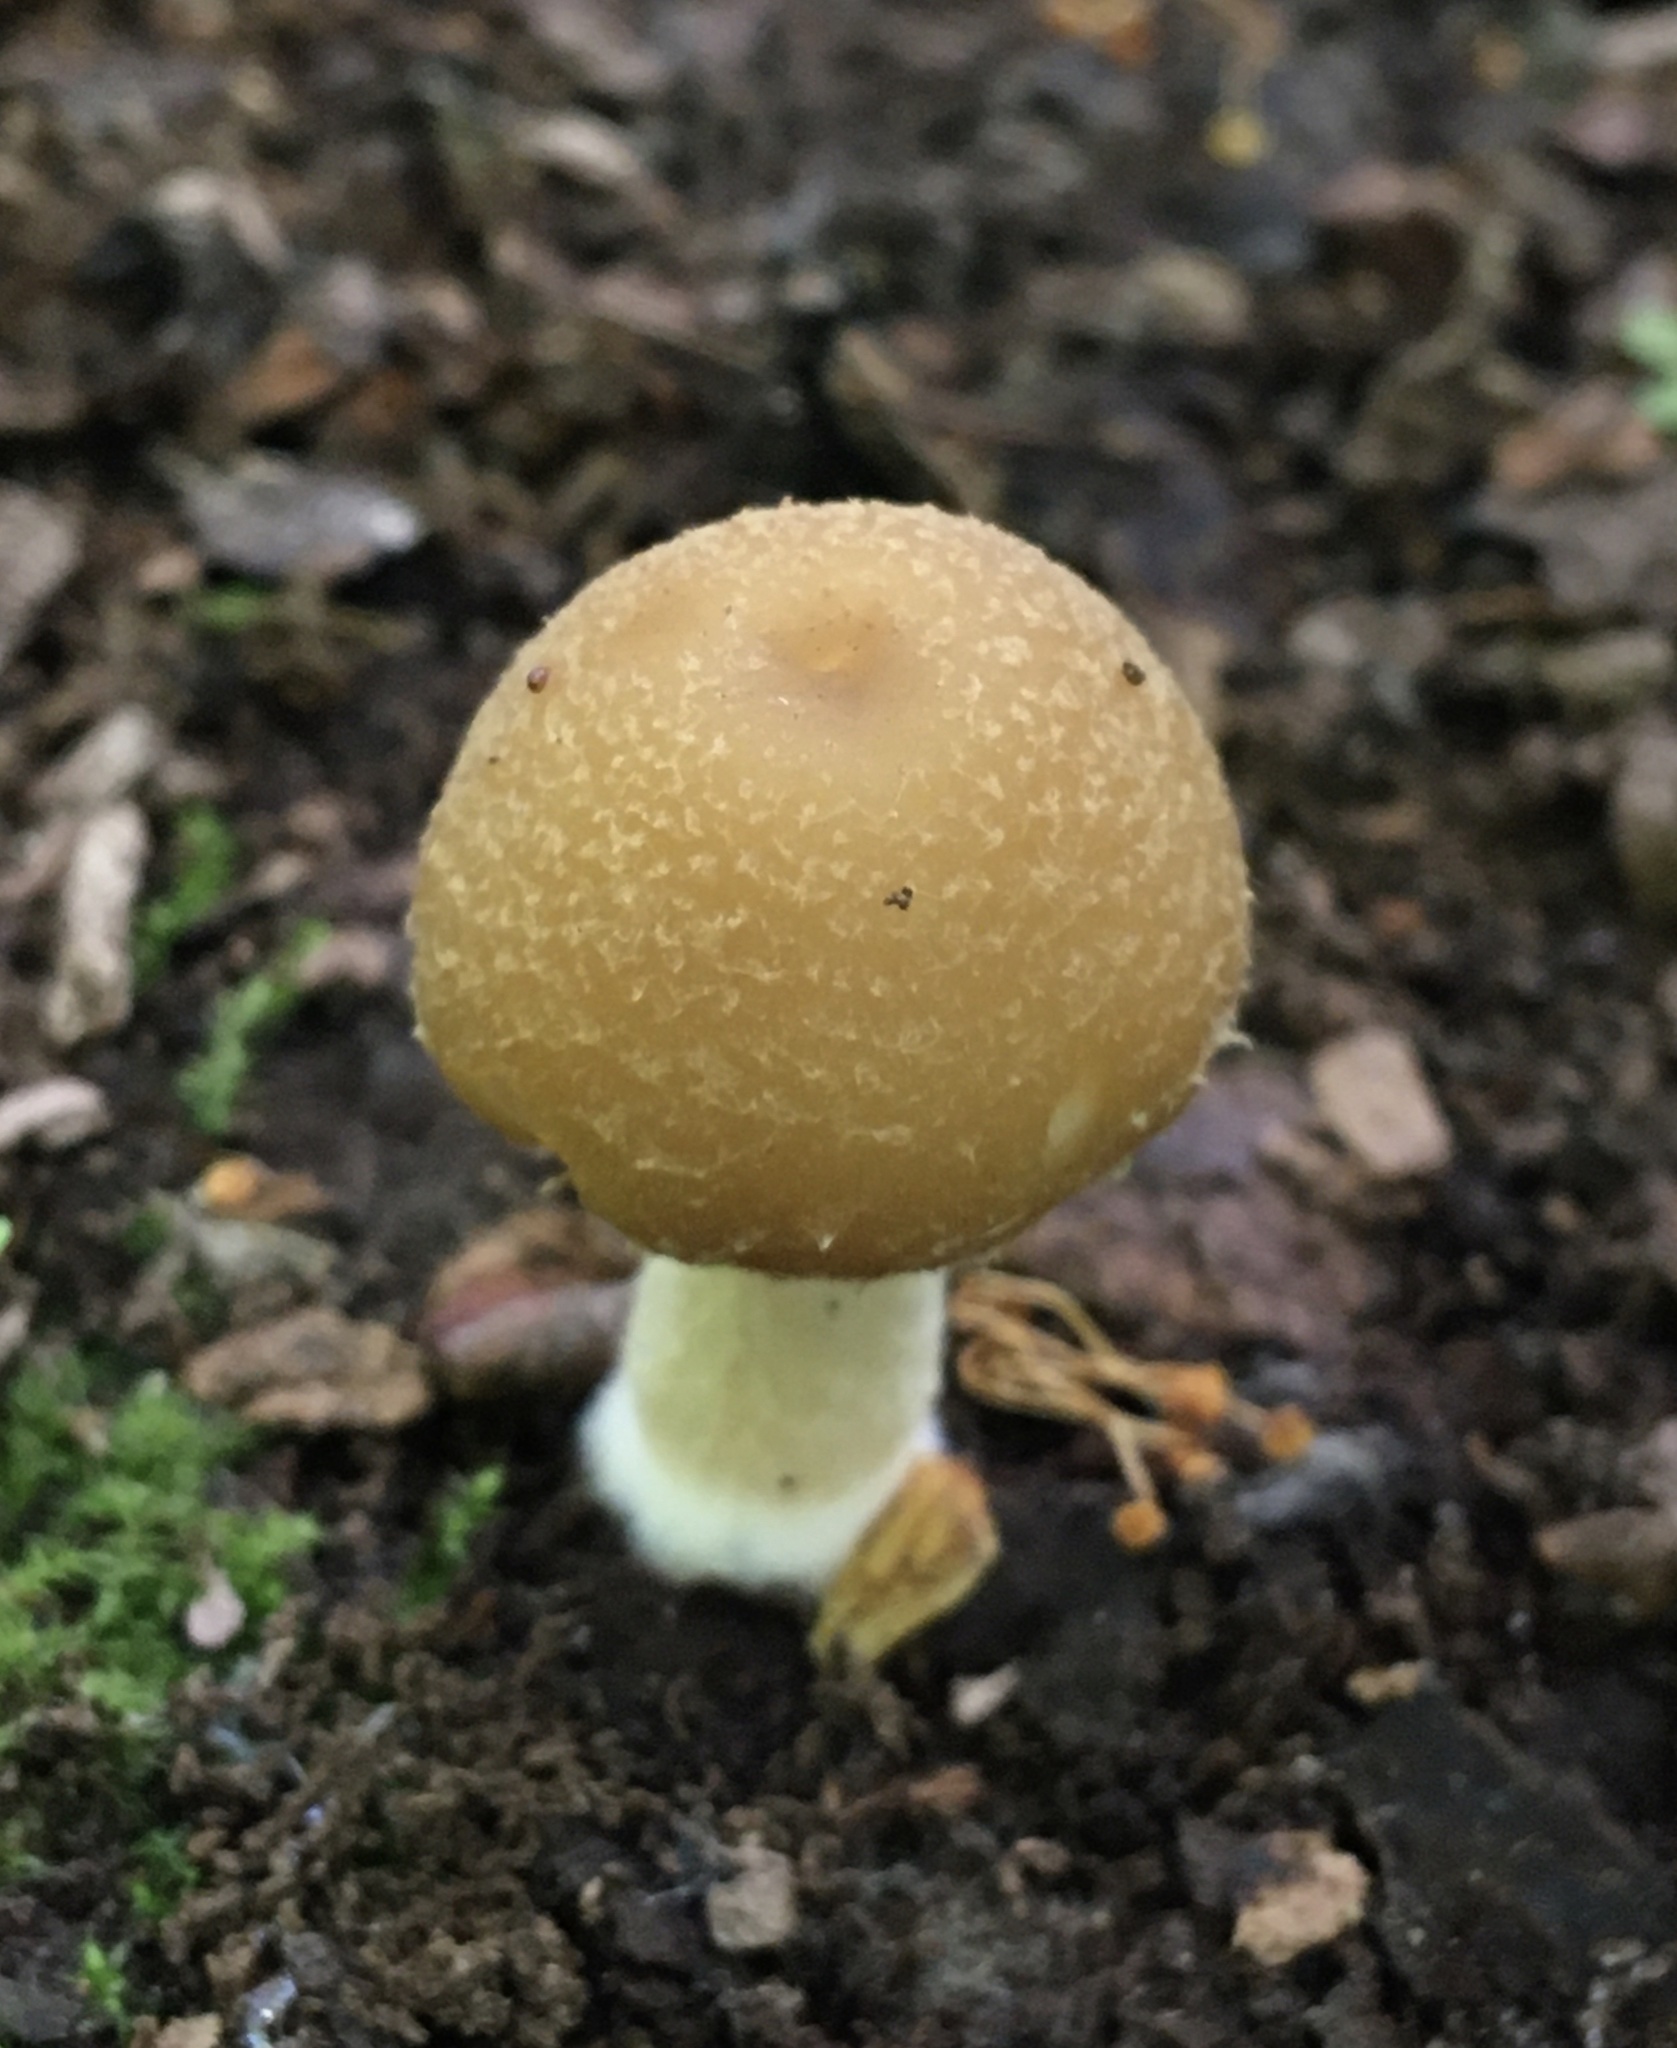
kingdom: Fungi
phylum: Basidiomycota
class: Agaricomycetes
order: Agaricales
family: Psathyrellaceae
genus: Candolleomyces
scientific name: Candolleomyces candolleanus
